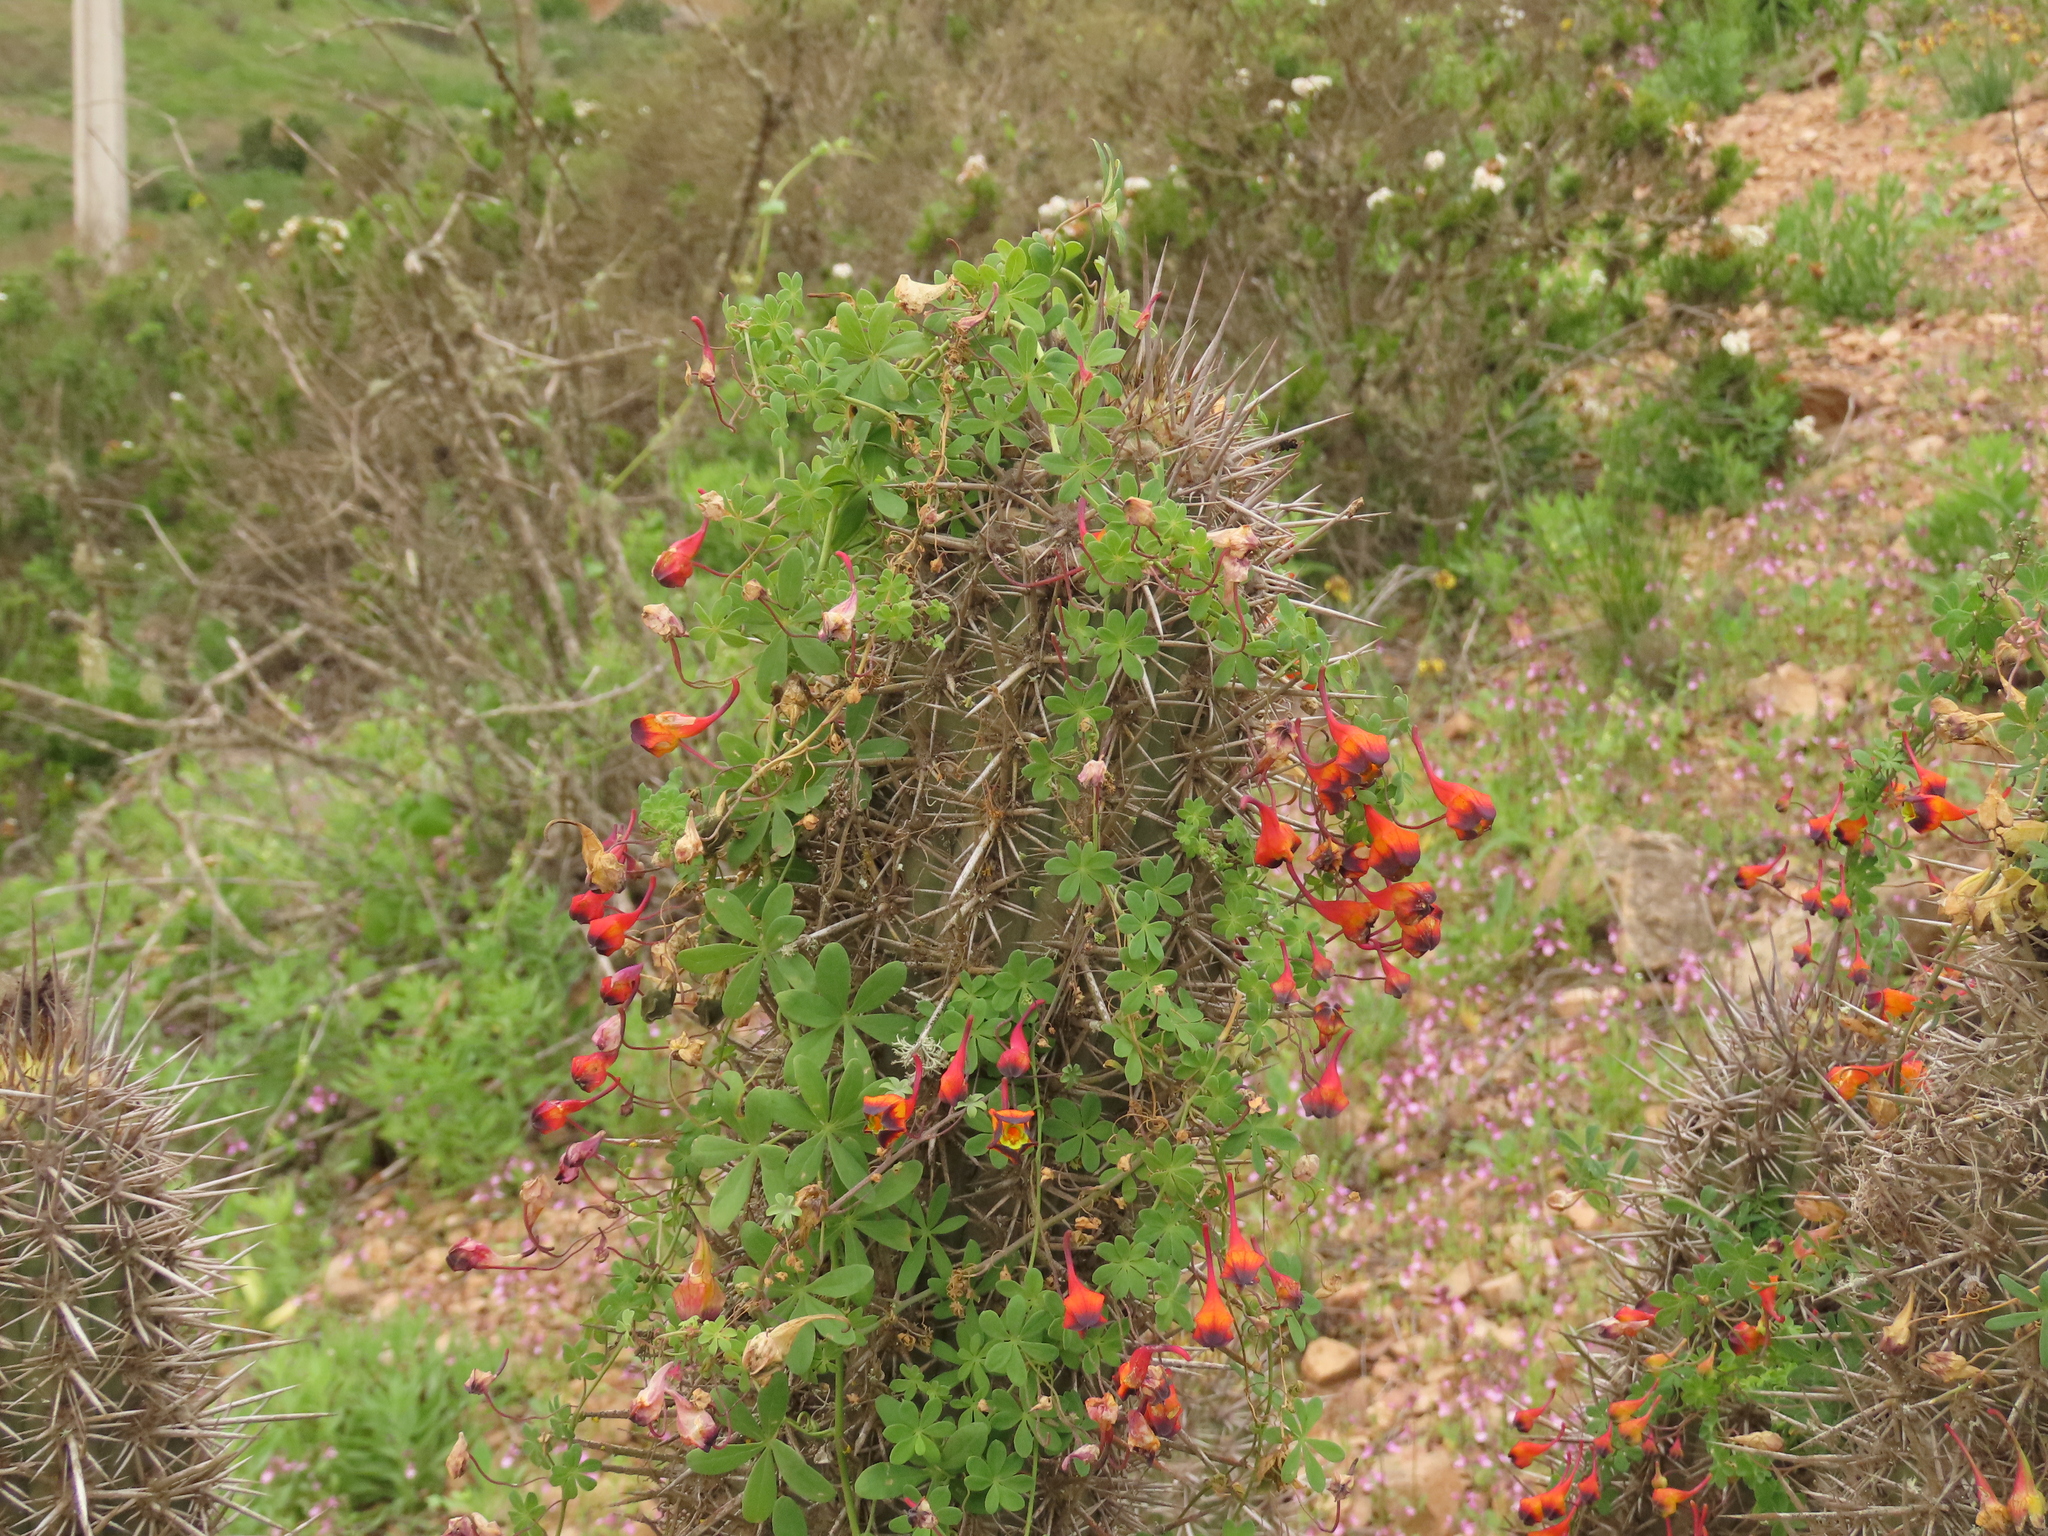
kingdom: Plantae
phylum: Tracheophyta
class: Magnoliopsida
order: Brassicales
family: Tropaeolaceae
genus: Tropaeolum
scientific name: Tropaeolum tricolor
